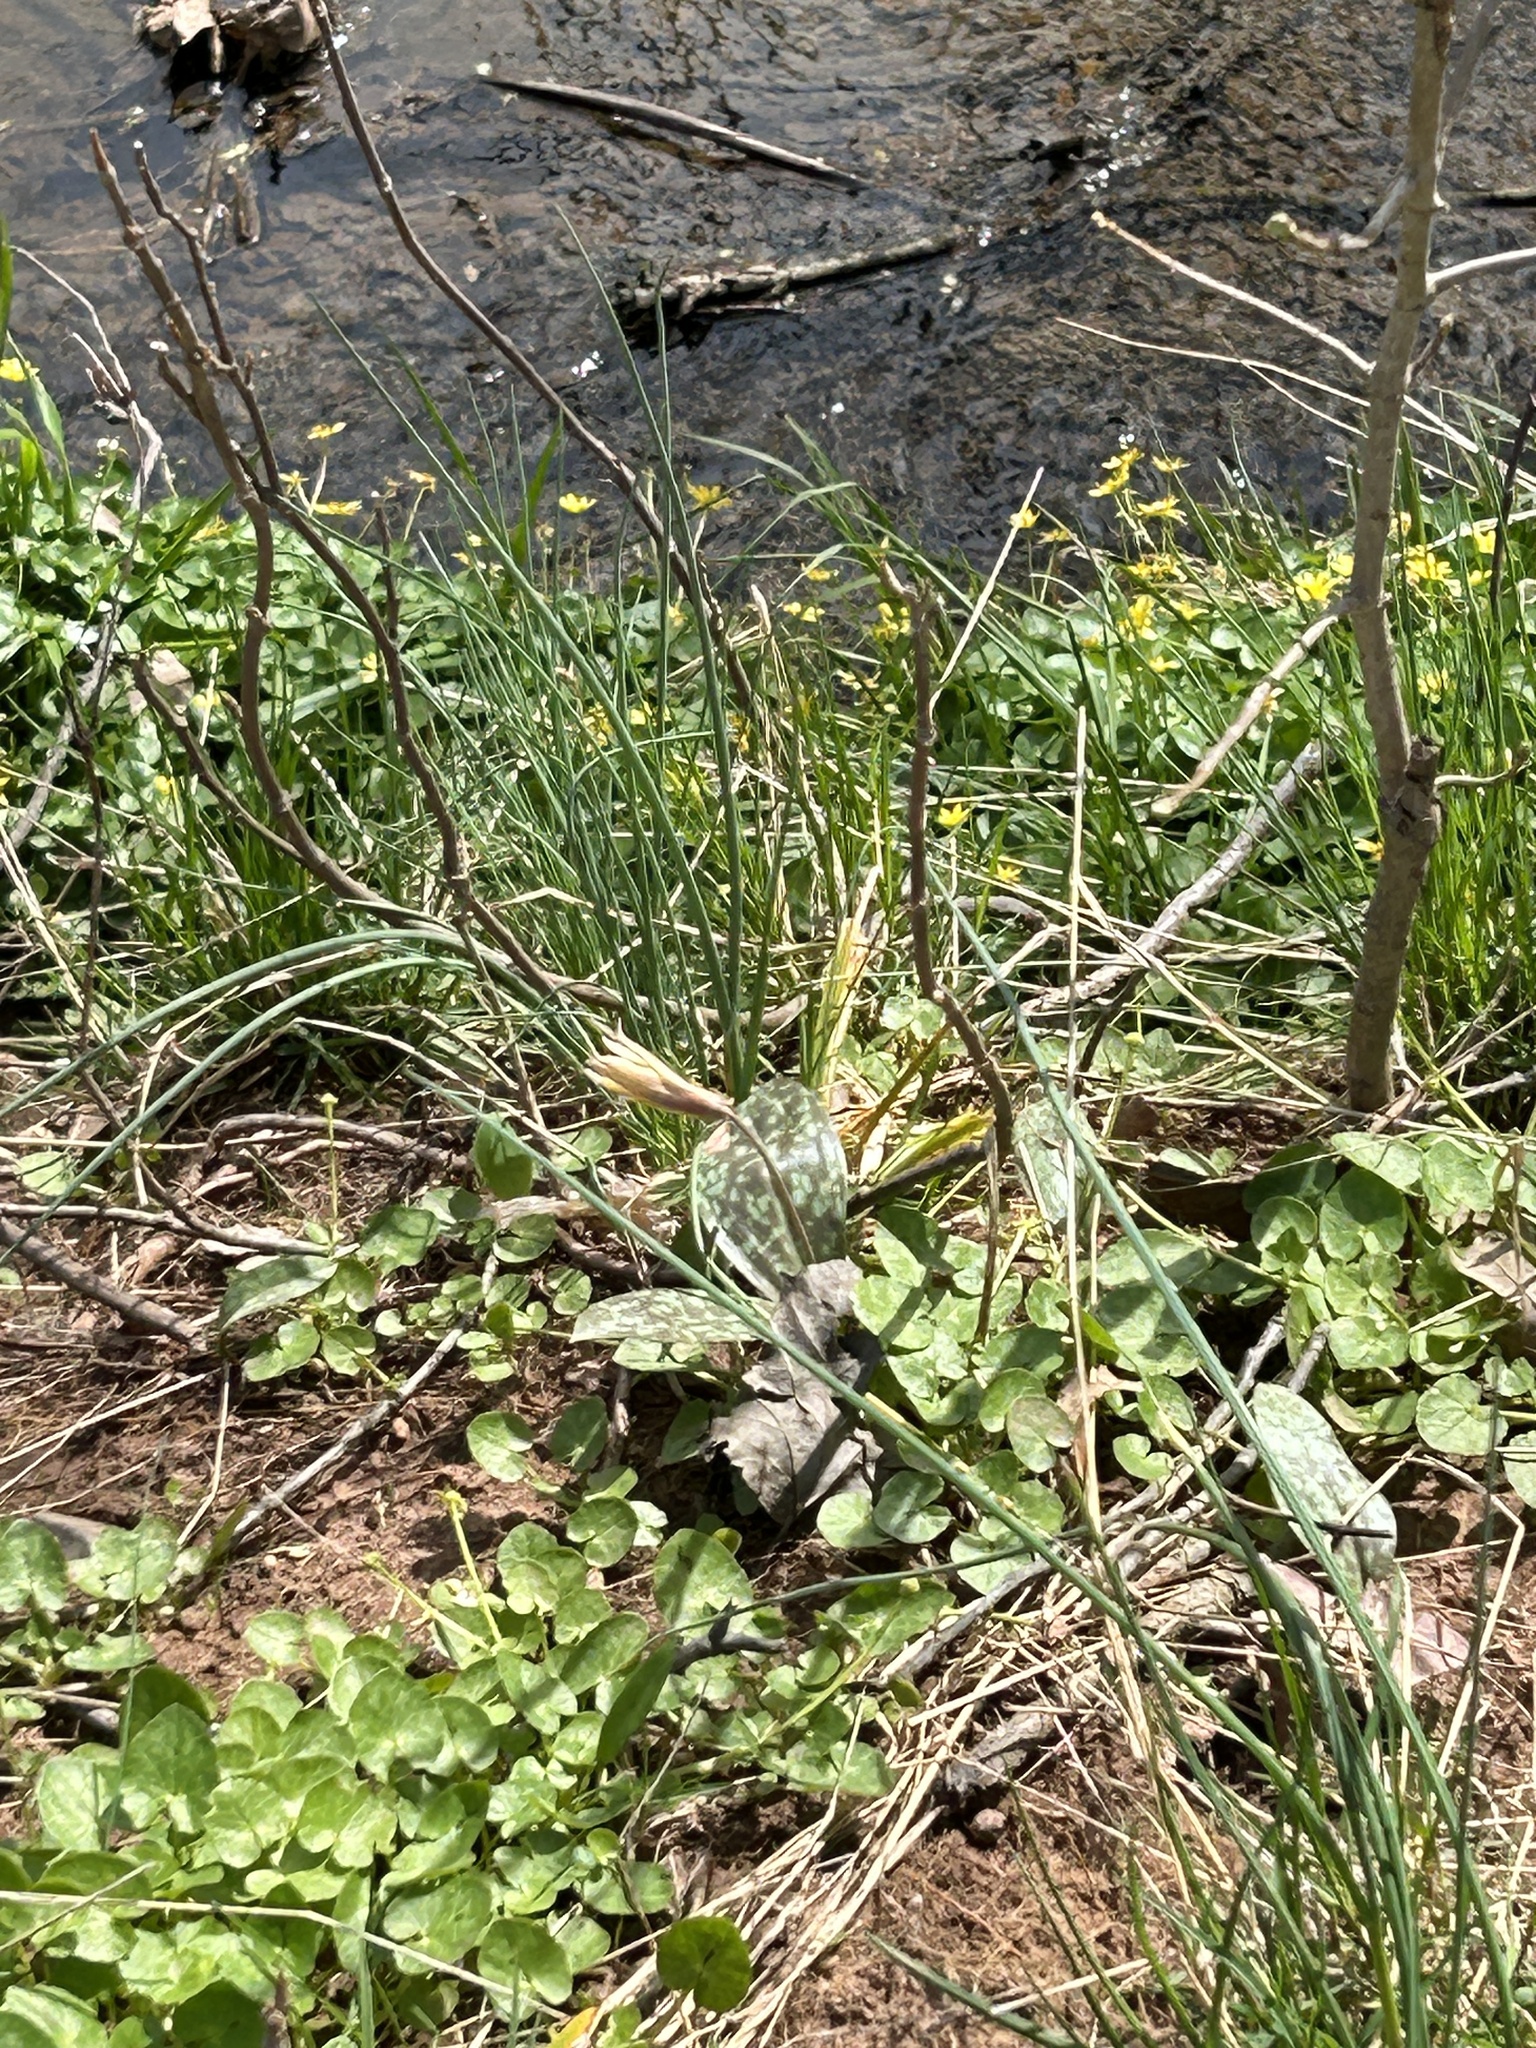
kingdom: Plantae
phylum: Tracheophyta
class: Liliopsida
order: Liliales
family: Liliaceae
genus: Erythronium
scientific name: Erythronium americanum
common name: Yellow adder's-tongue
